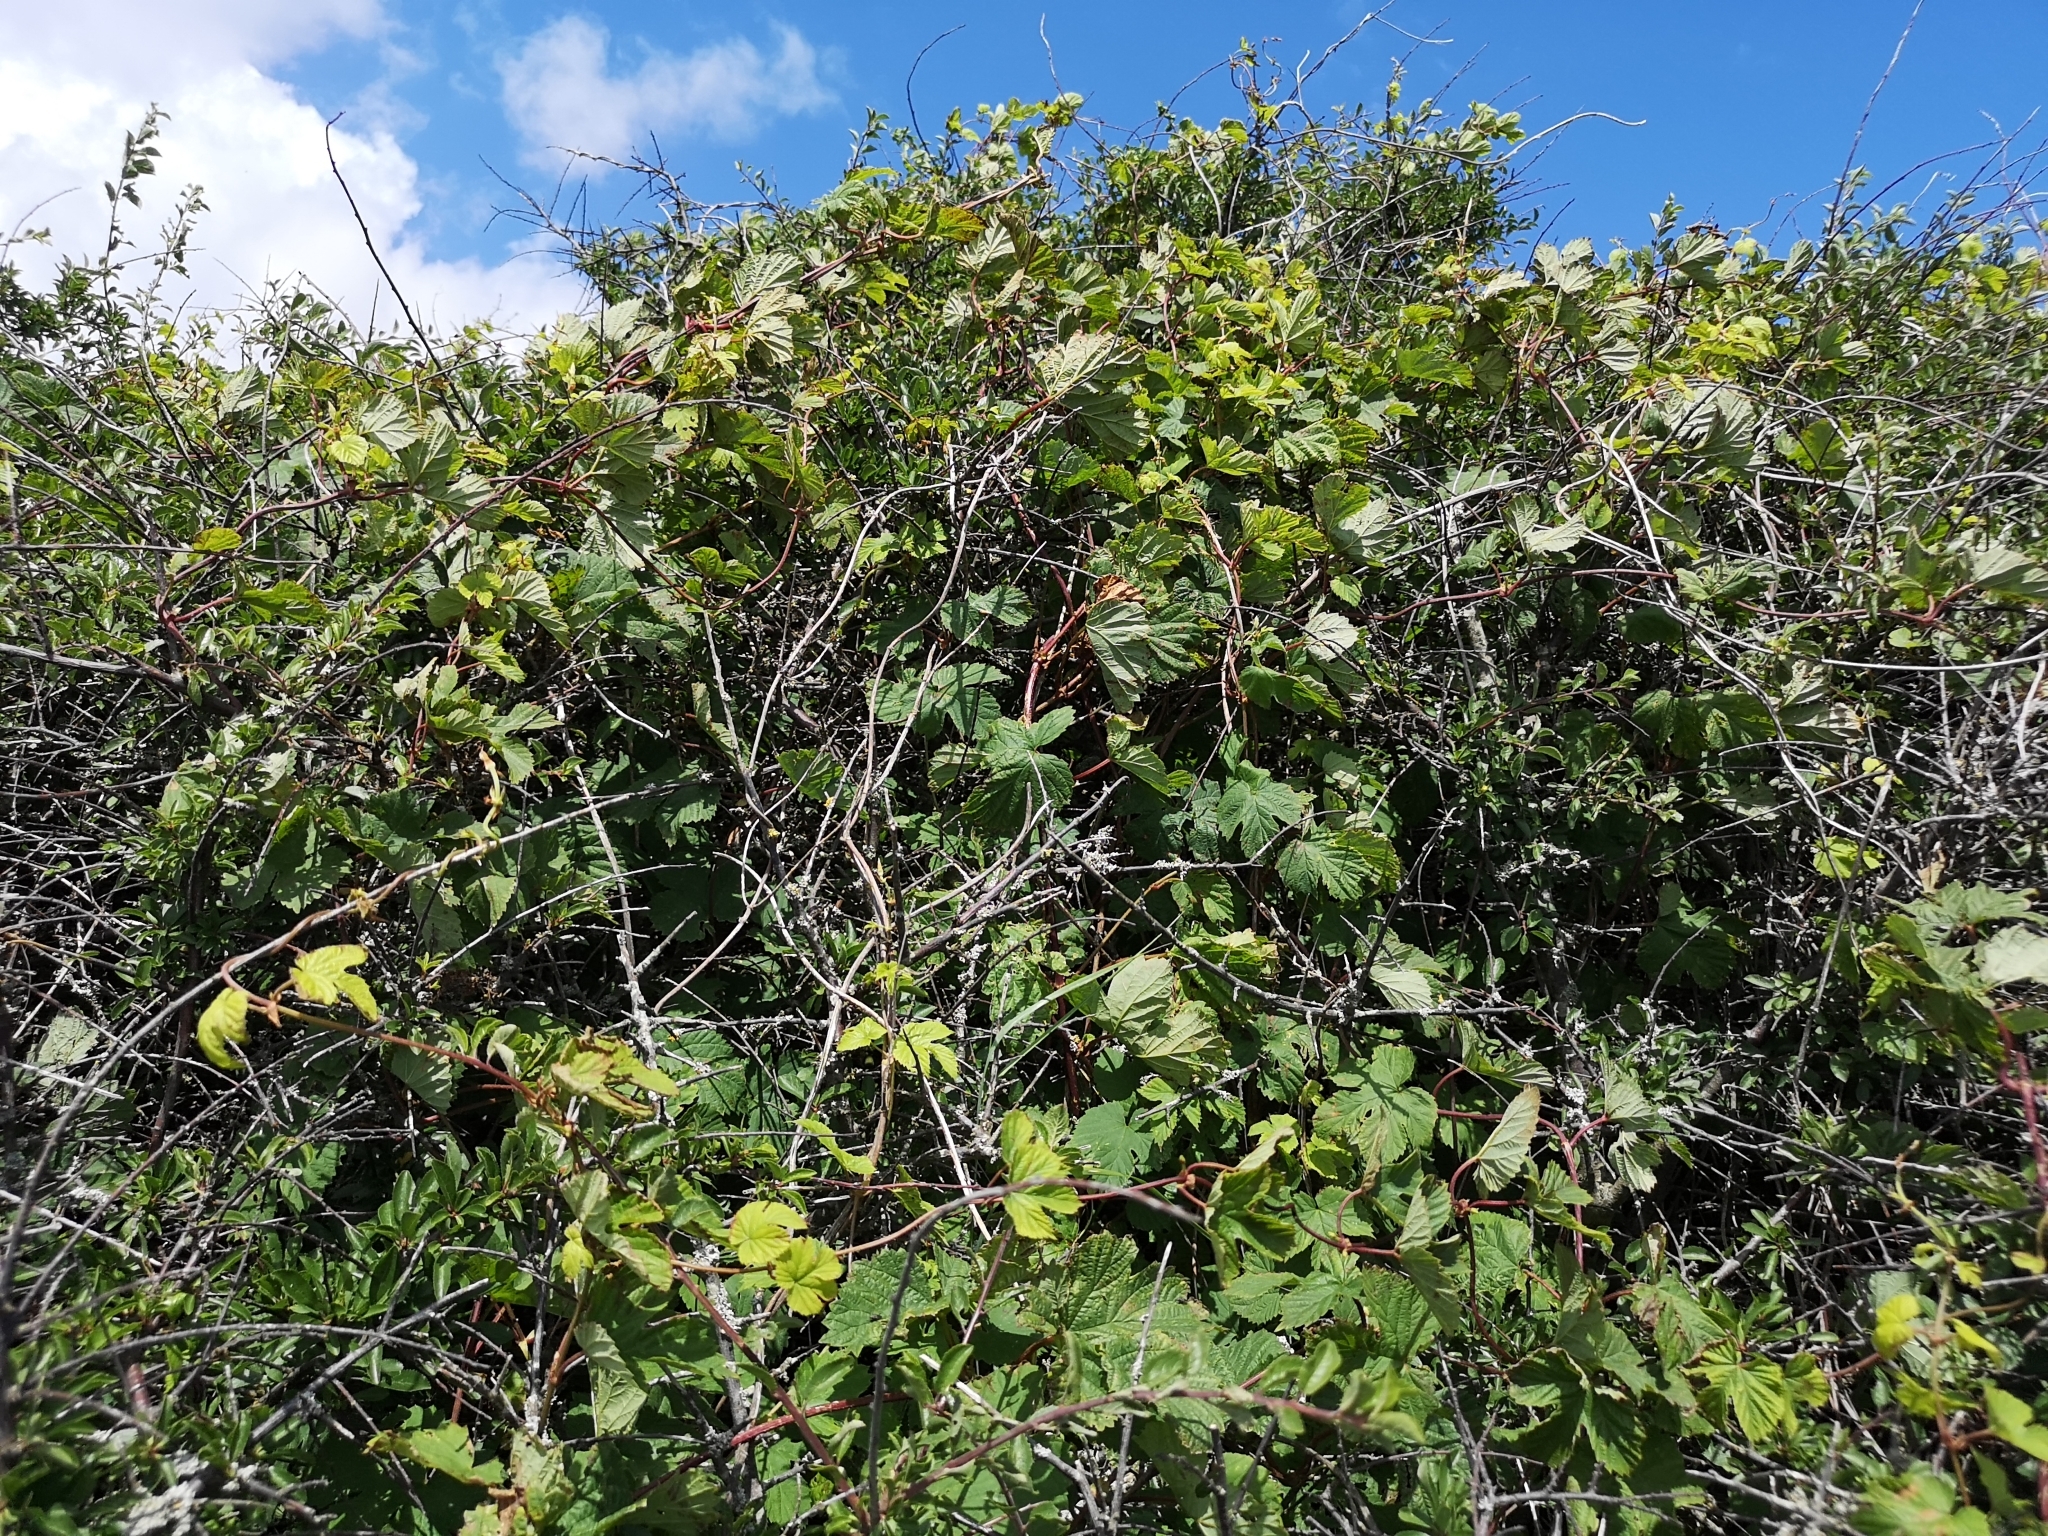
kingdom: Plantae
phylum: Tracheophyta
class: Magnoliopsida
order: Rosales
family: Cannabaceae
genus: Humulus
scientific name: Humulus lupulus
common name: Hop
